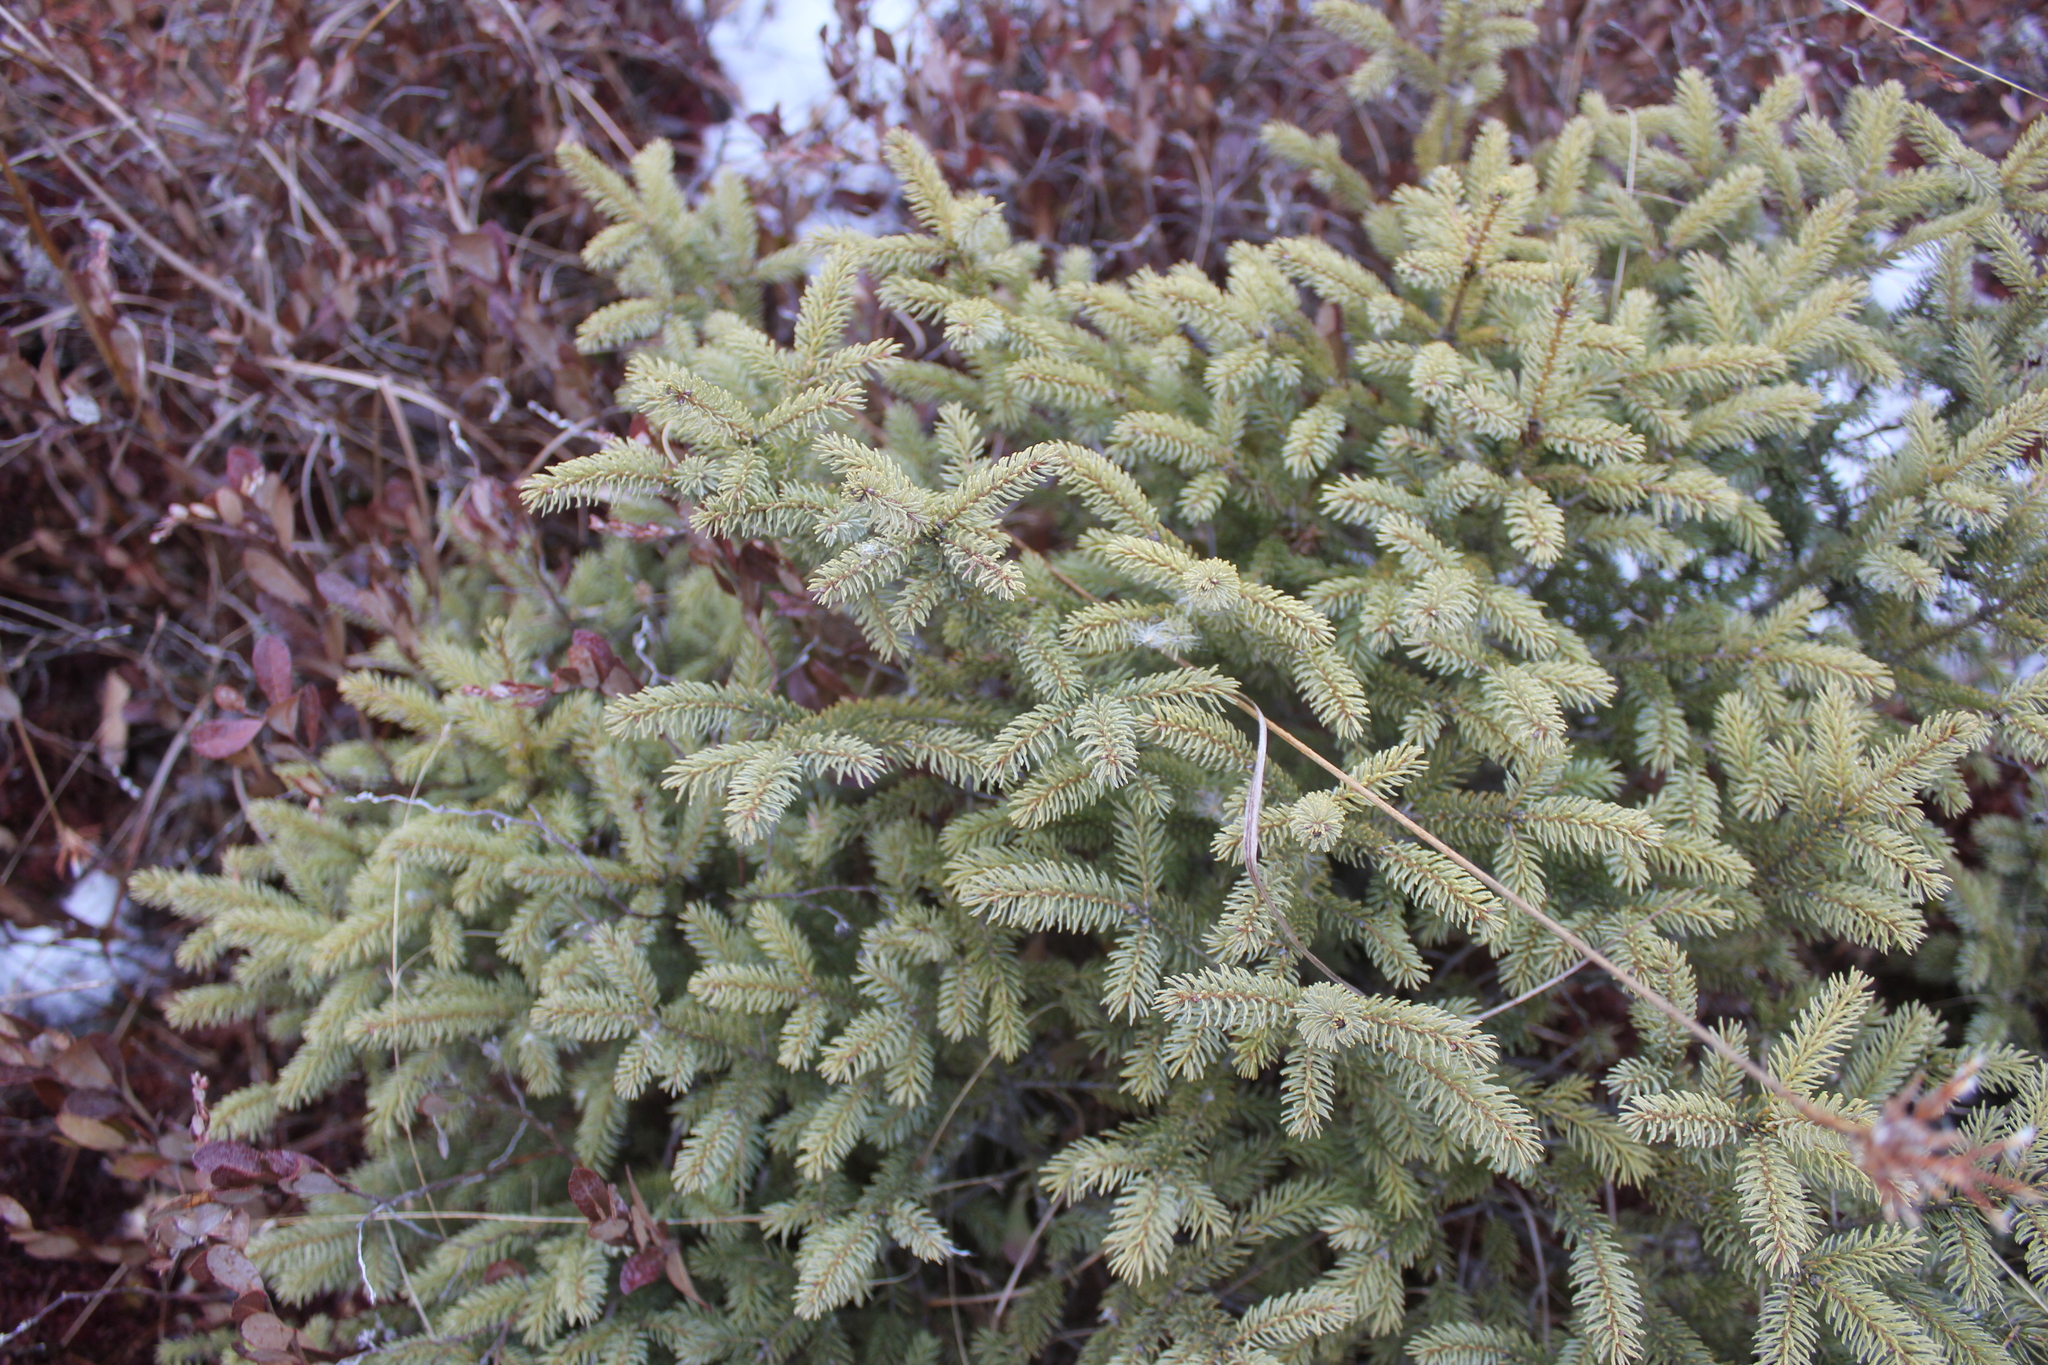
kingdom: Plantae
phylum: Tracheophyta
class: Pinopsida
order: Pinales
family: Pinaceae
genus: Picea
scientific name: Picea mariana
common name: Black spruce
